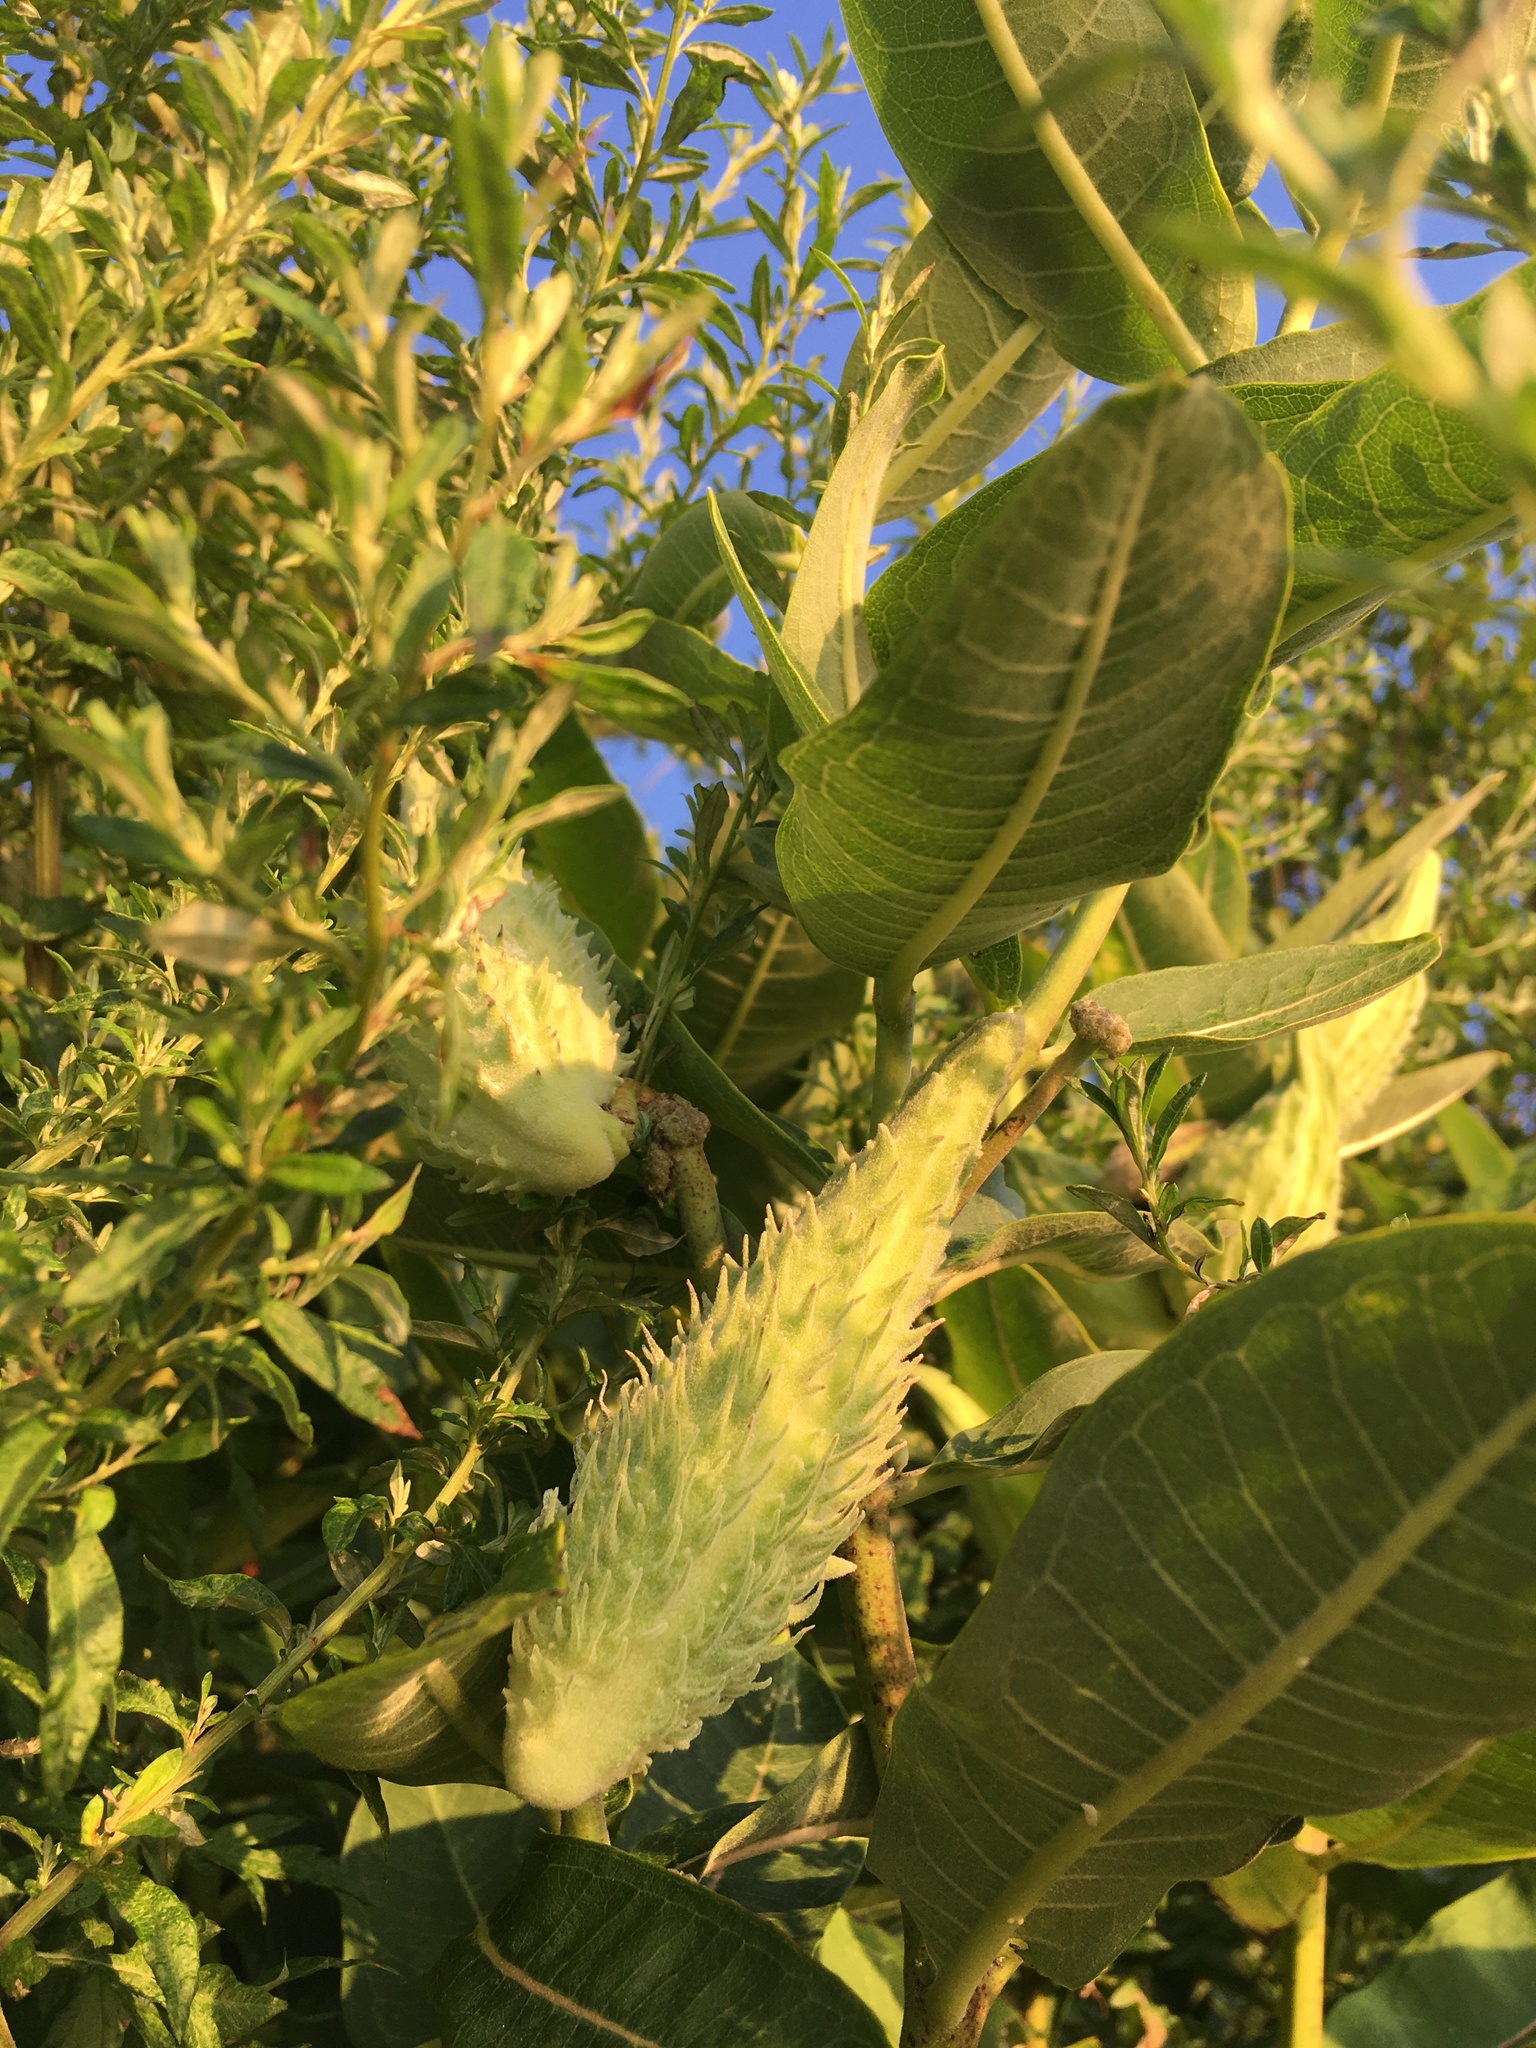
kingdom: Plantae
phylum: Tracheophyta
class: Magnoliopsida
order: Gentianales
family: Apocynaceae
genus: Asclepias
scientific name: Asclepias syriaca
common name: Common milkweed
